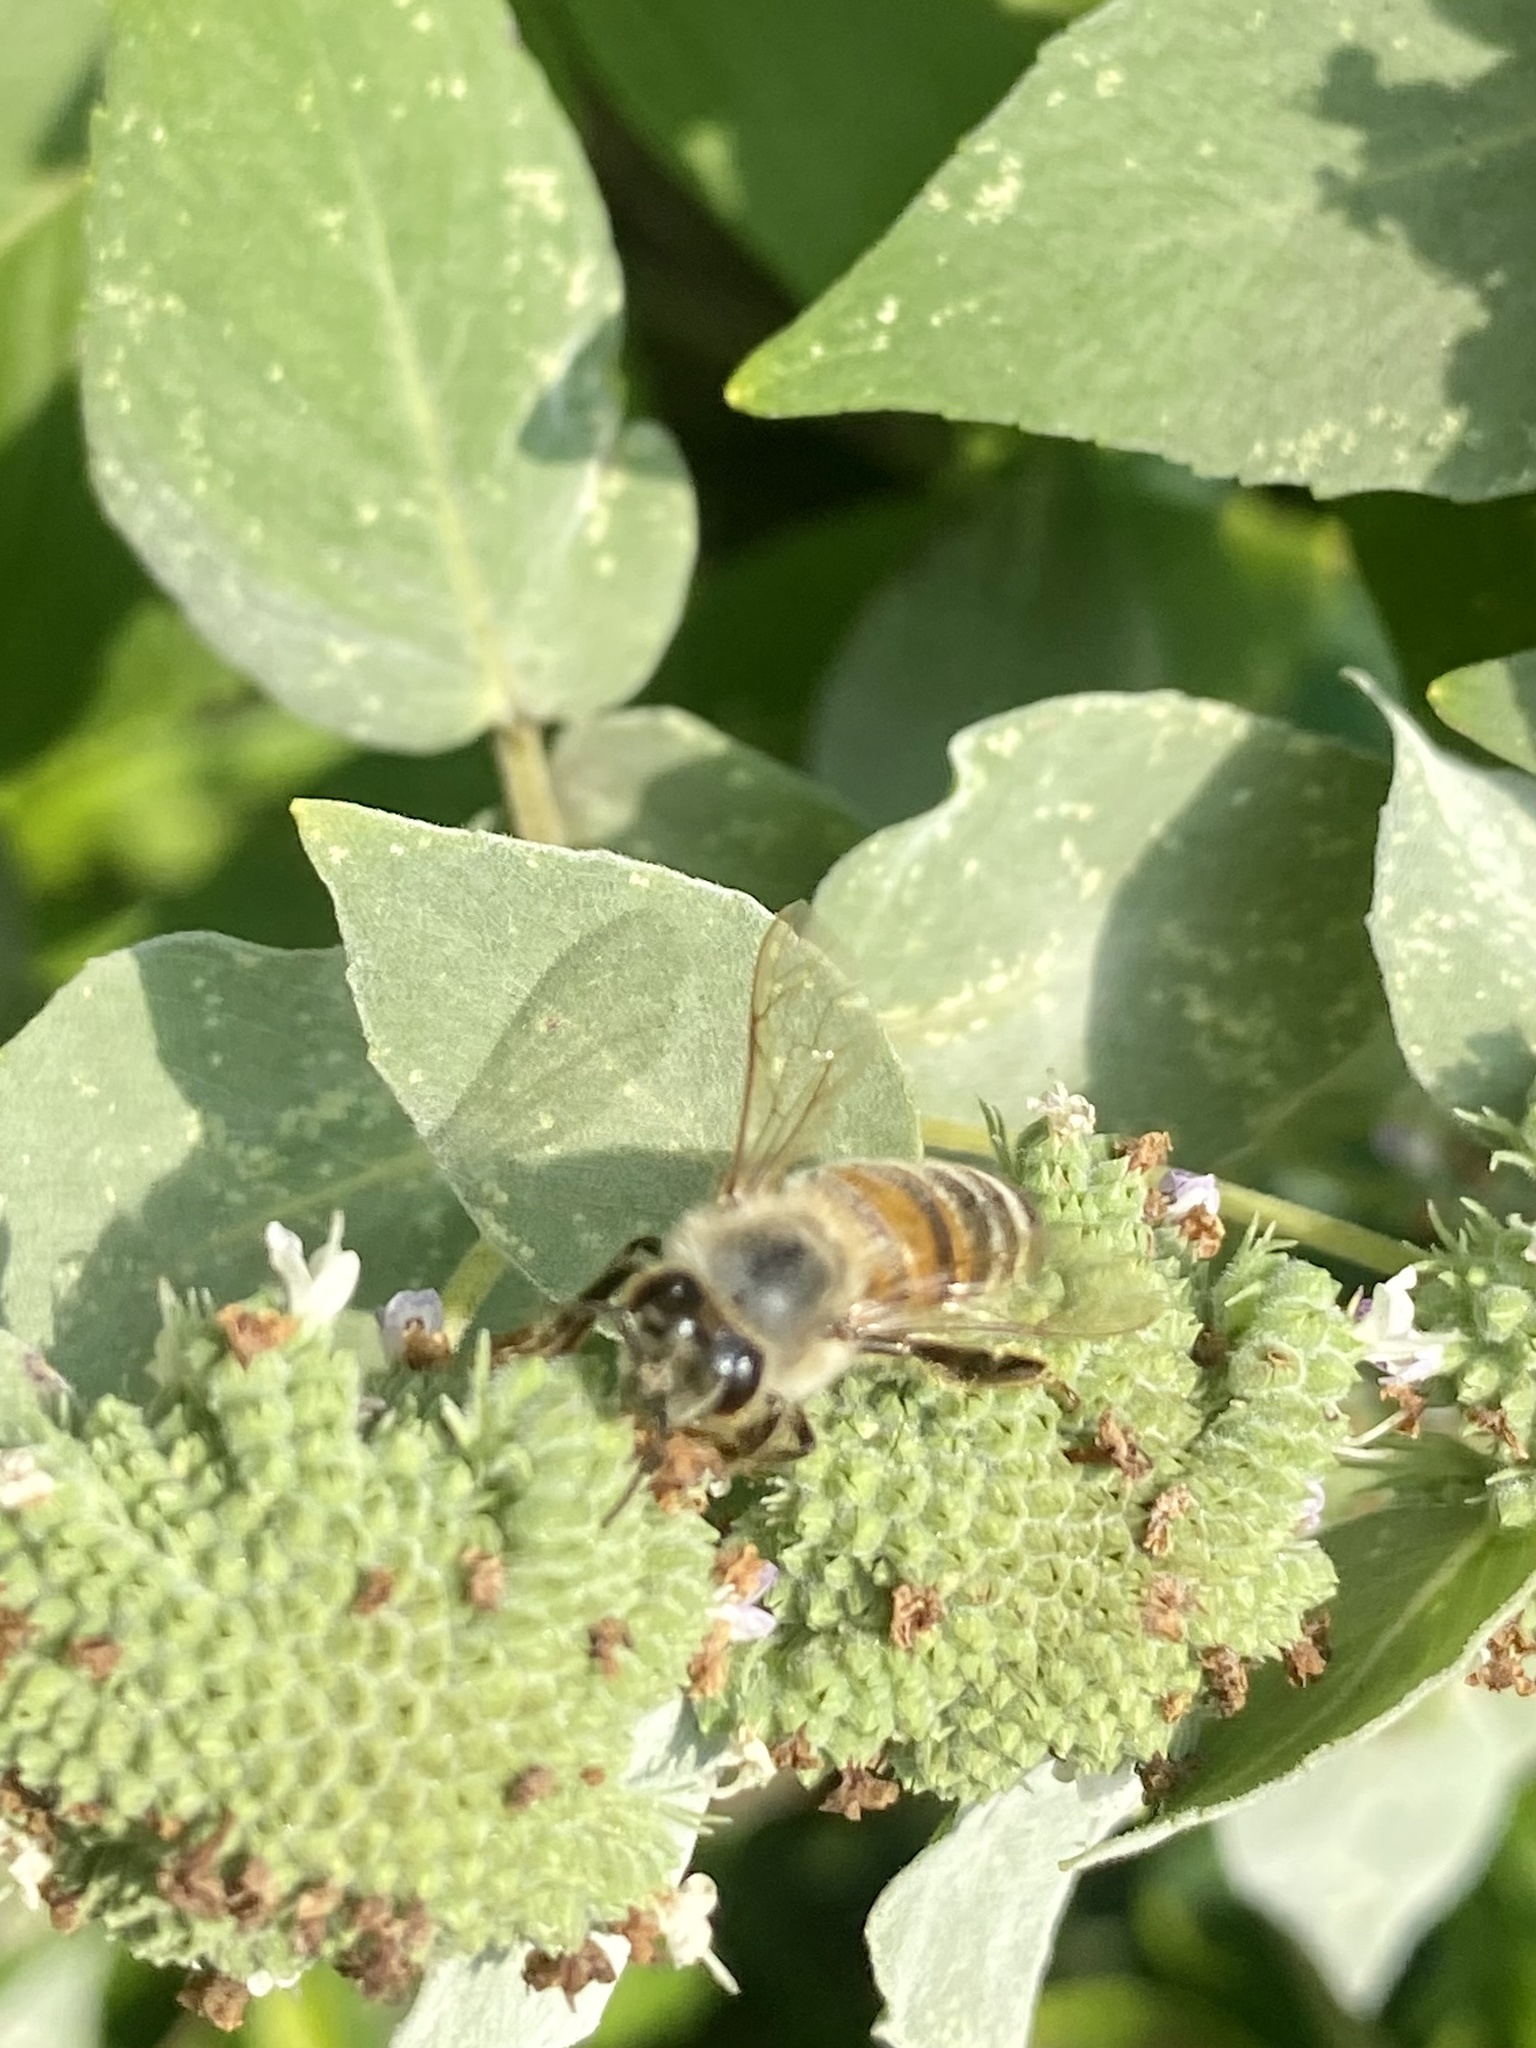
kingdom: Animalia
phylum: Arthropoda
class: Insecta
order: Hymenoptera
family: Apidae
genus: Apis
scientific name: Apis mellifera
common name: Honey bee
